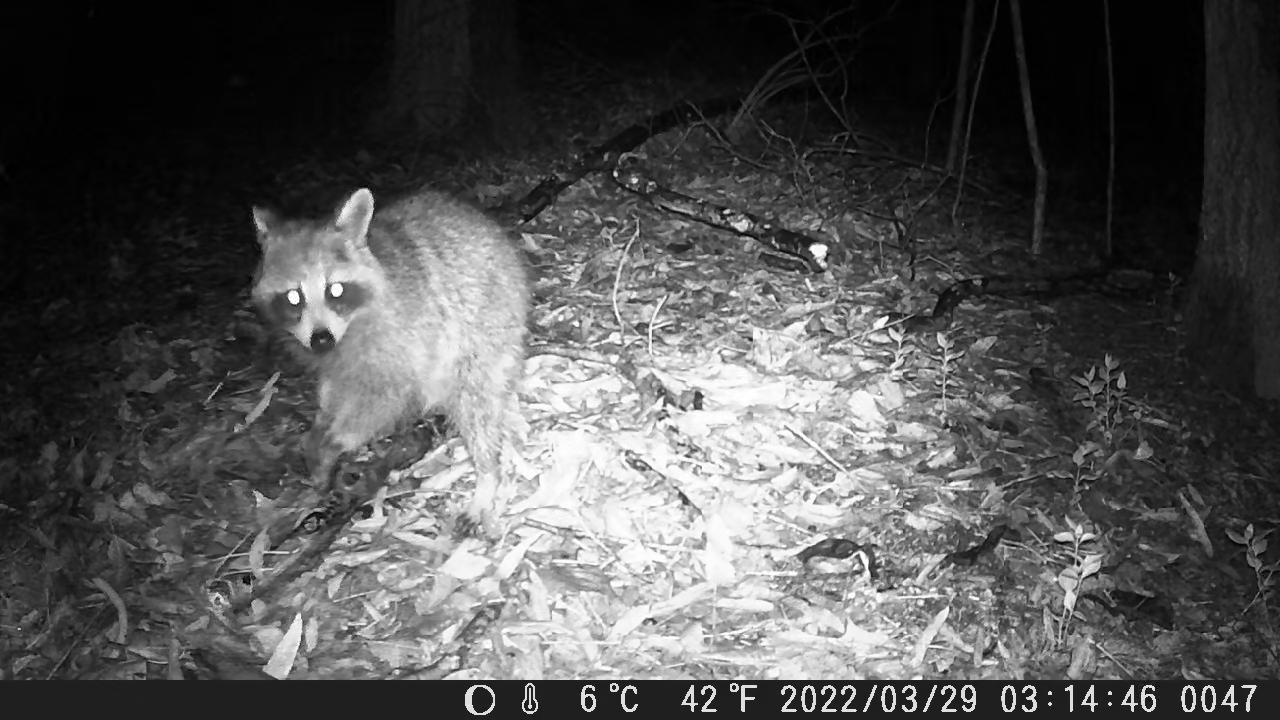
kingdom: Animalia
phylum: Chordata
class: Mammalia
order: Carnivora
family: Procyonidae
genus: Procyon
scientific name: Procyon lotor
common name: Raccoon
